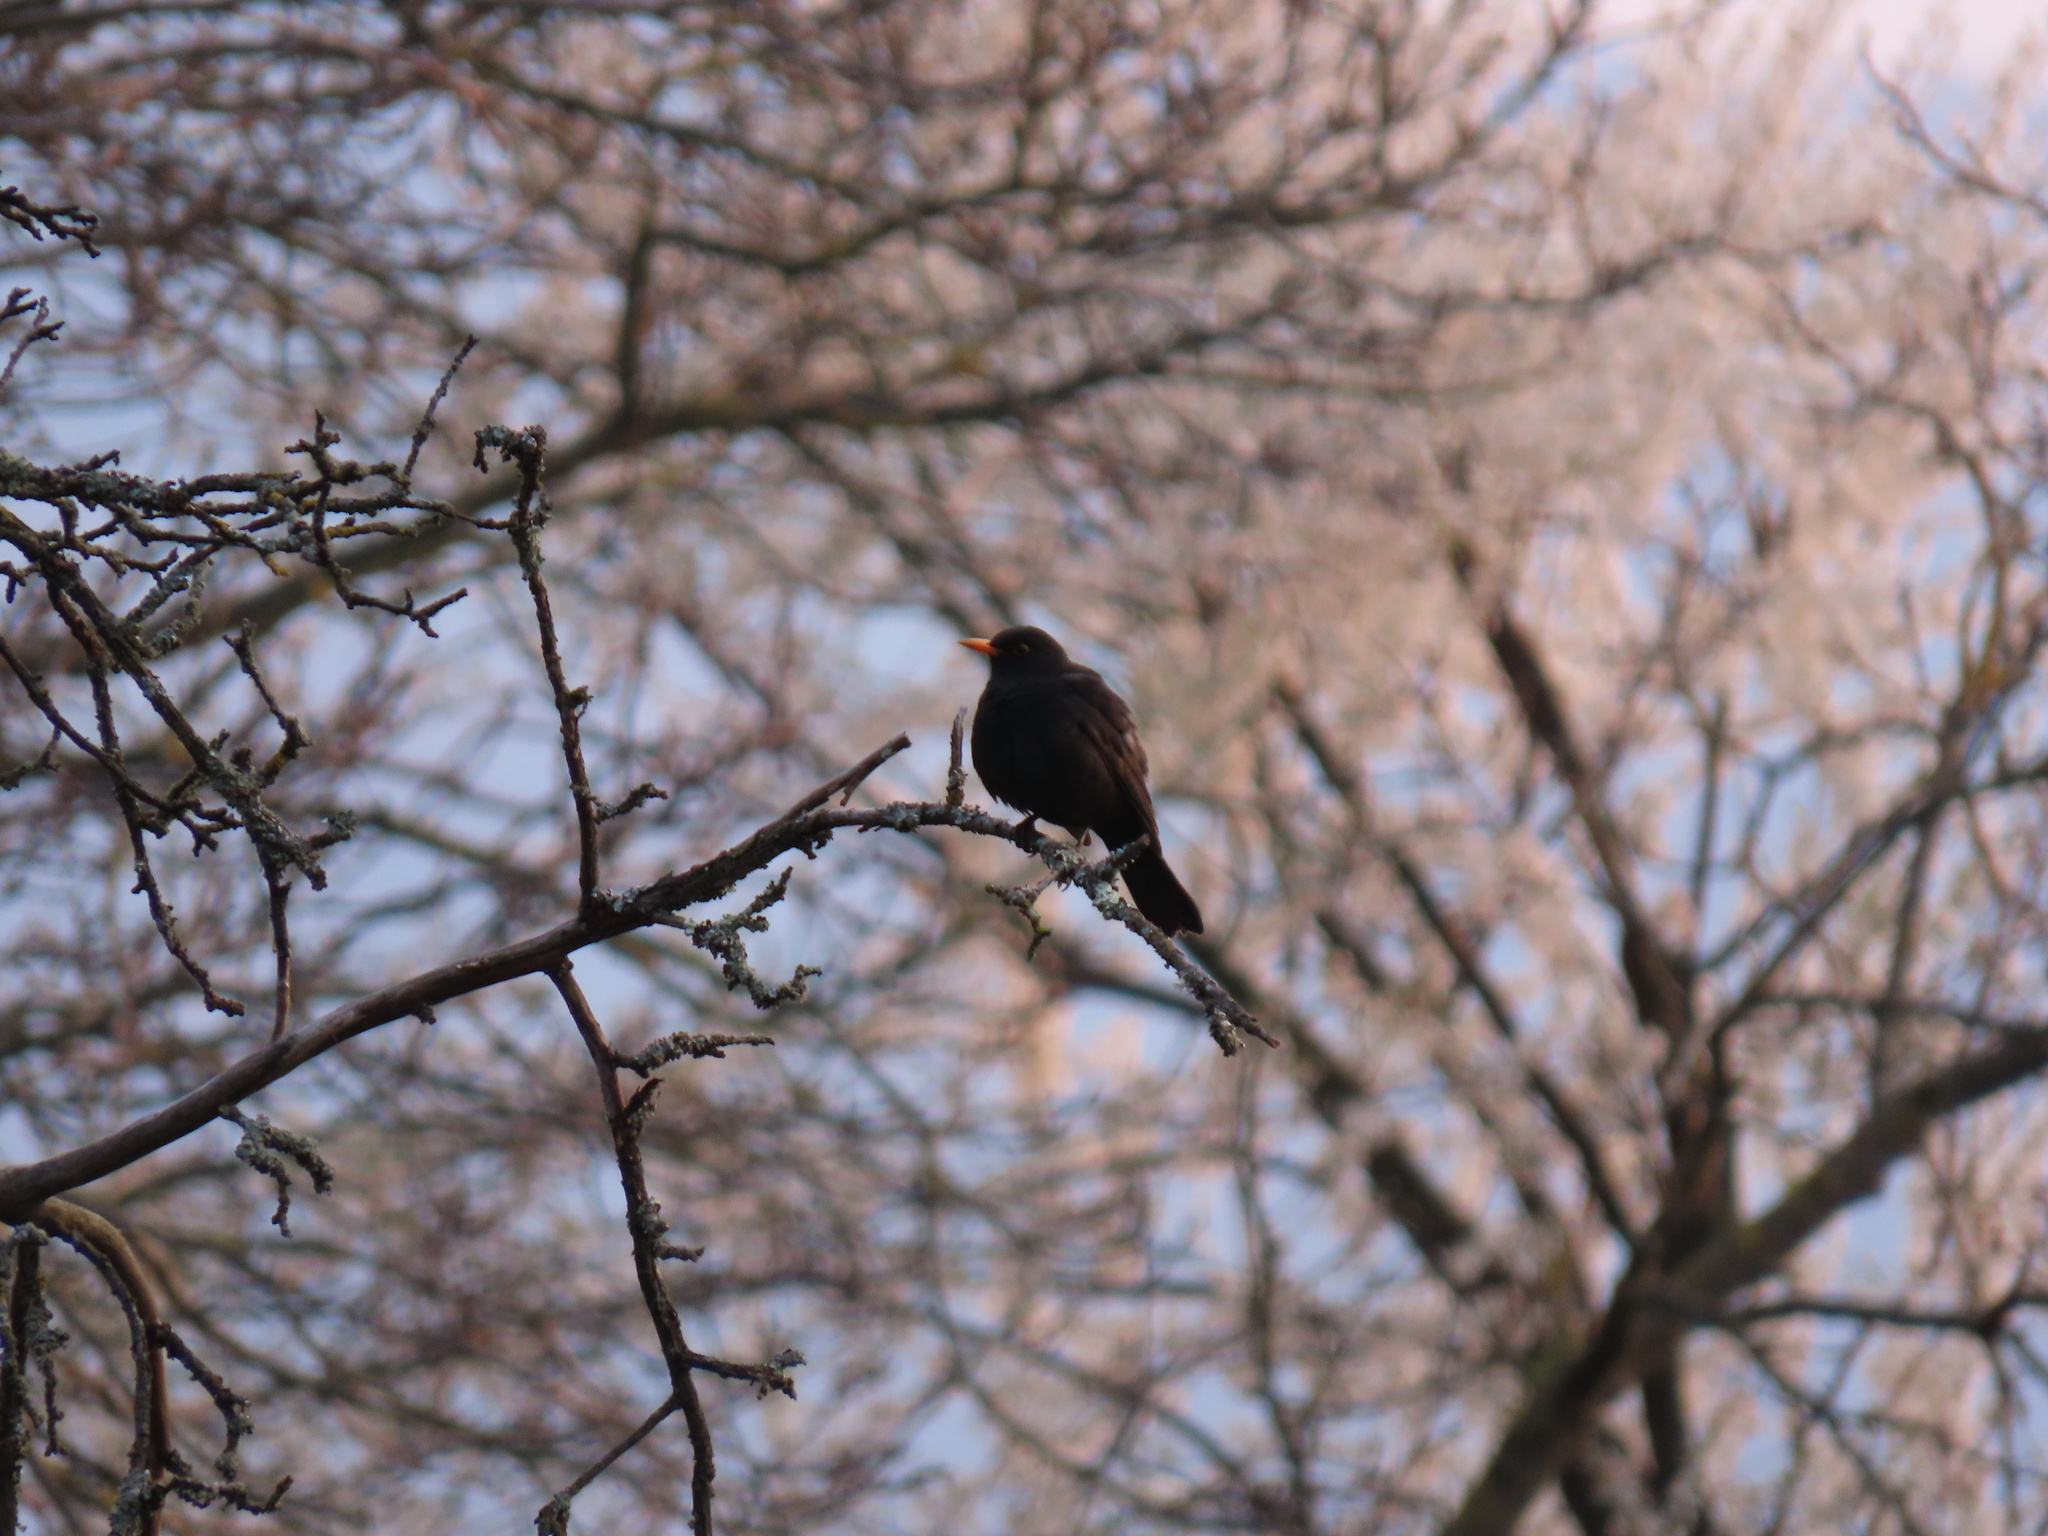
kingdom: Animalia
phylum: Chordata
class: Aves
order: Passeriformes
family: Turdidae
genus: Turdus
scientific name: Turdus merula
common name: Common blackbird
